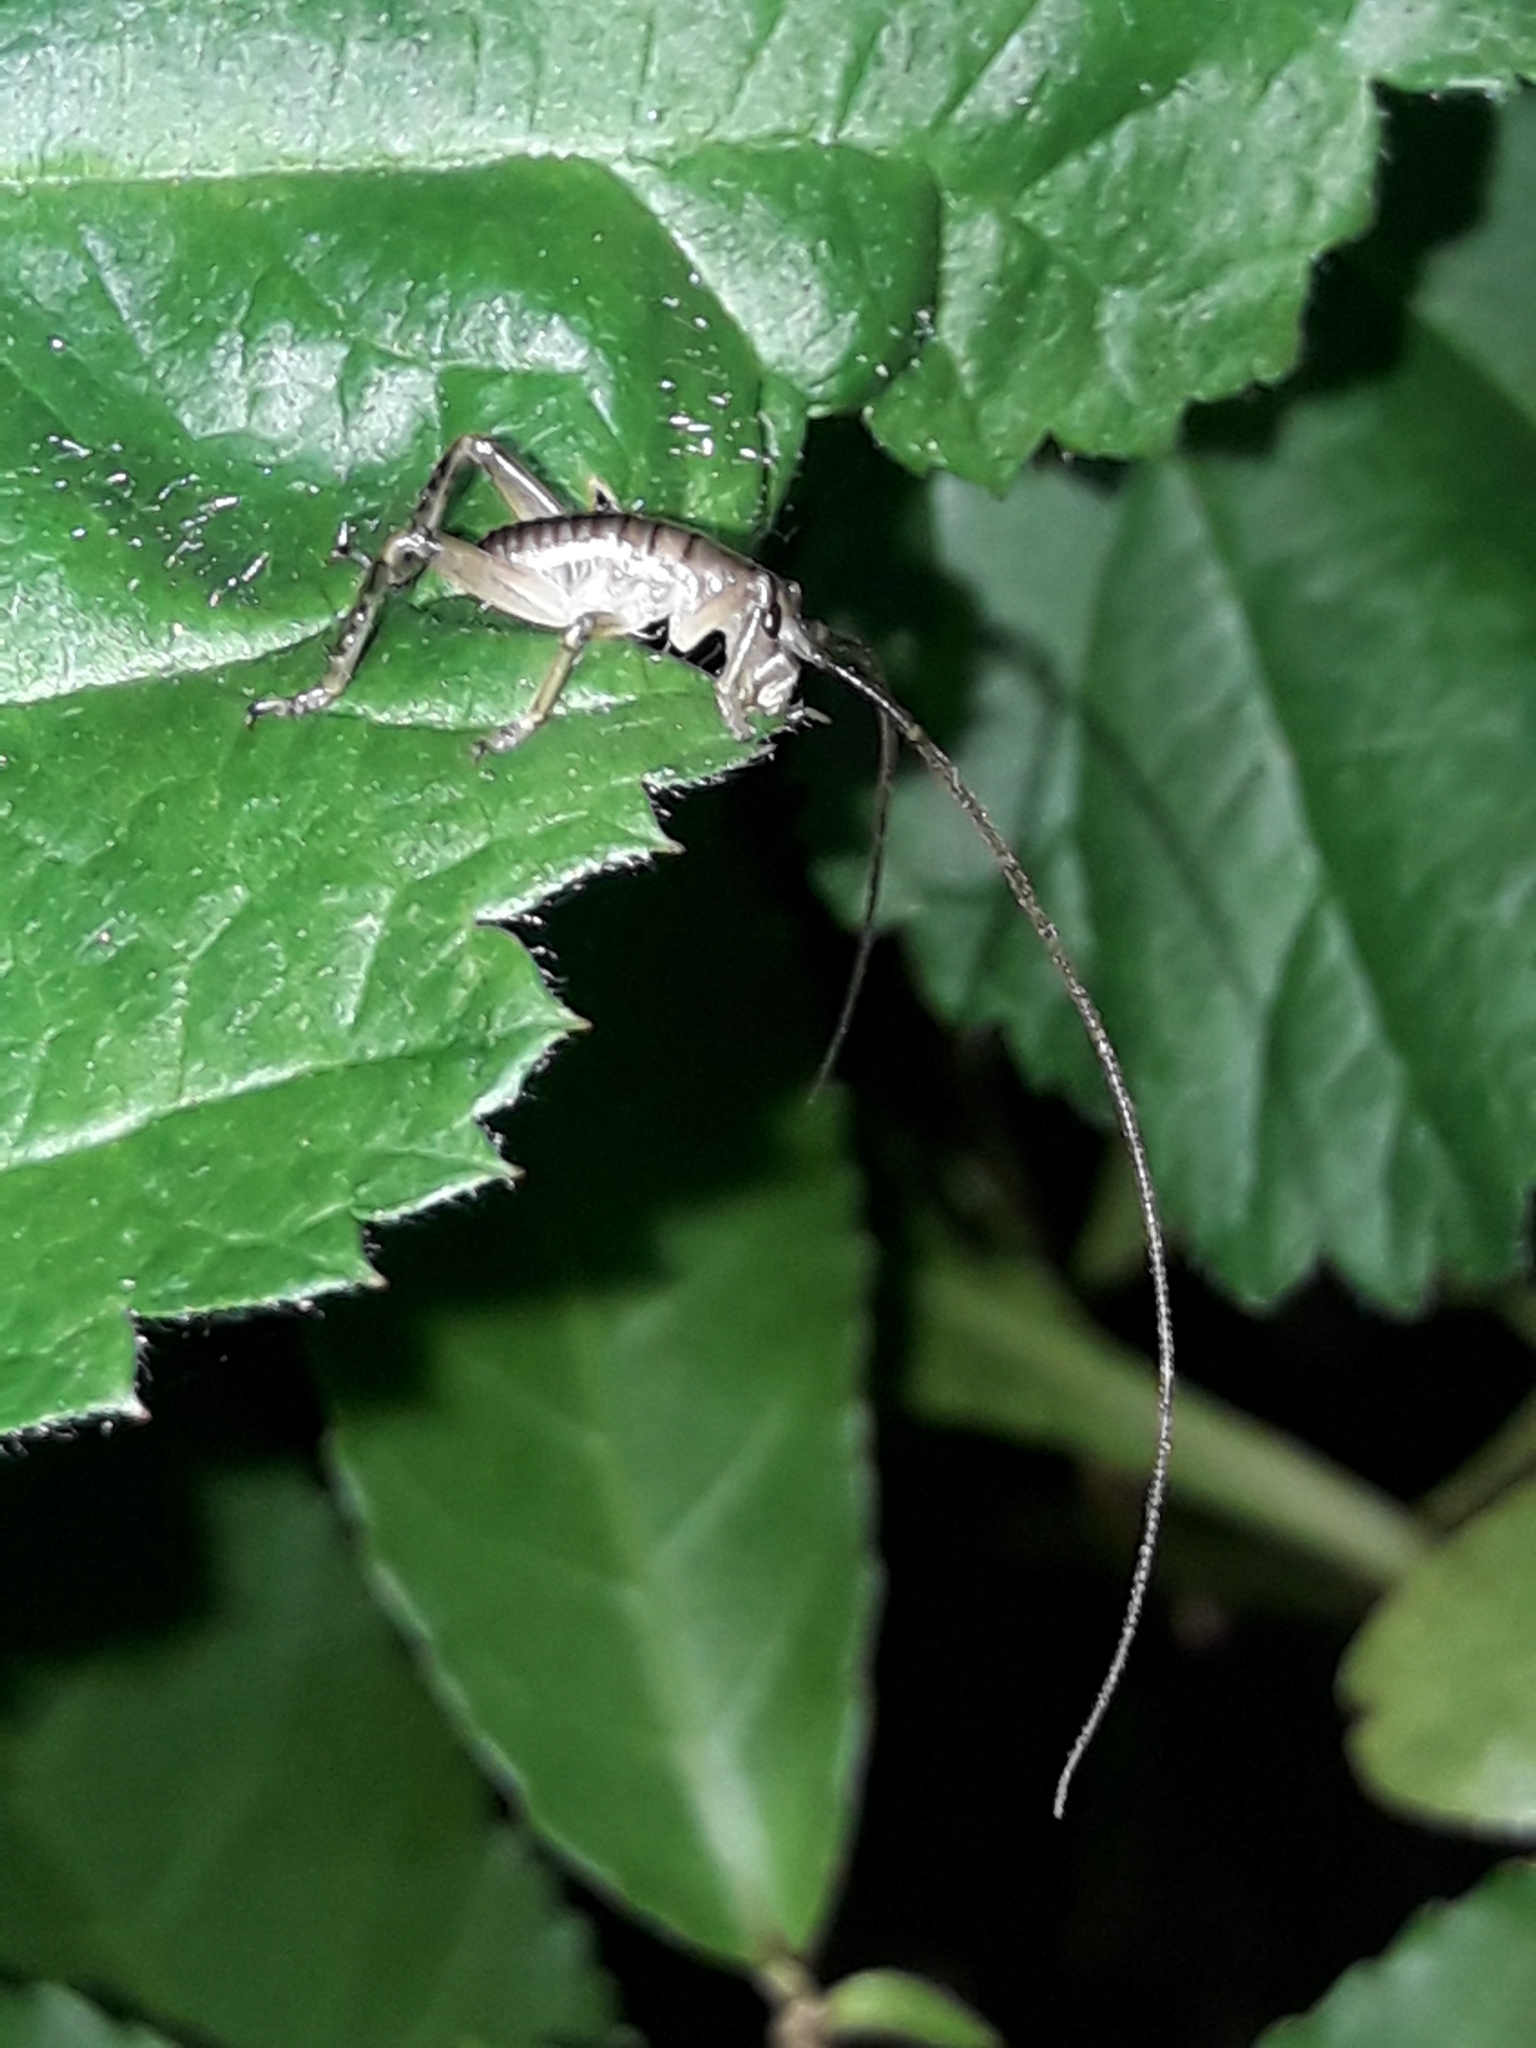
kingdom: Animalia
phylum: Arthropoda
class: Insecta
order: Orthoptera
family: Anostostomatidae
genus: Hemideina
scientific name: Hemideina crassidens
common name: Wellington tree weta
